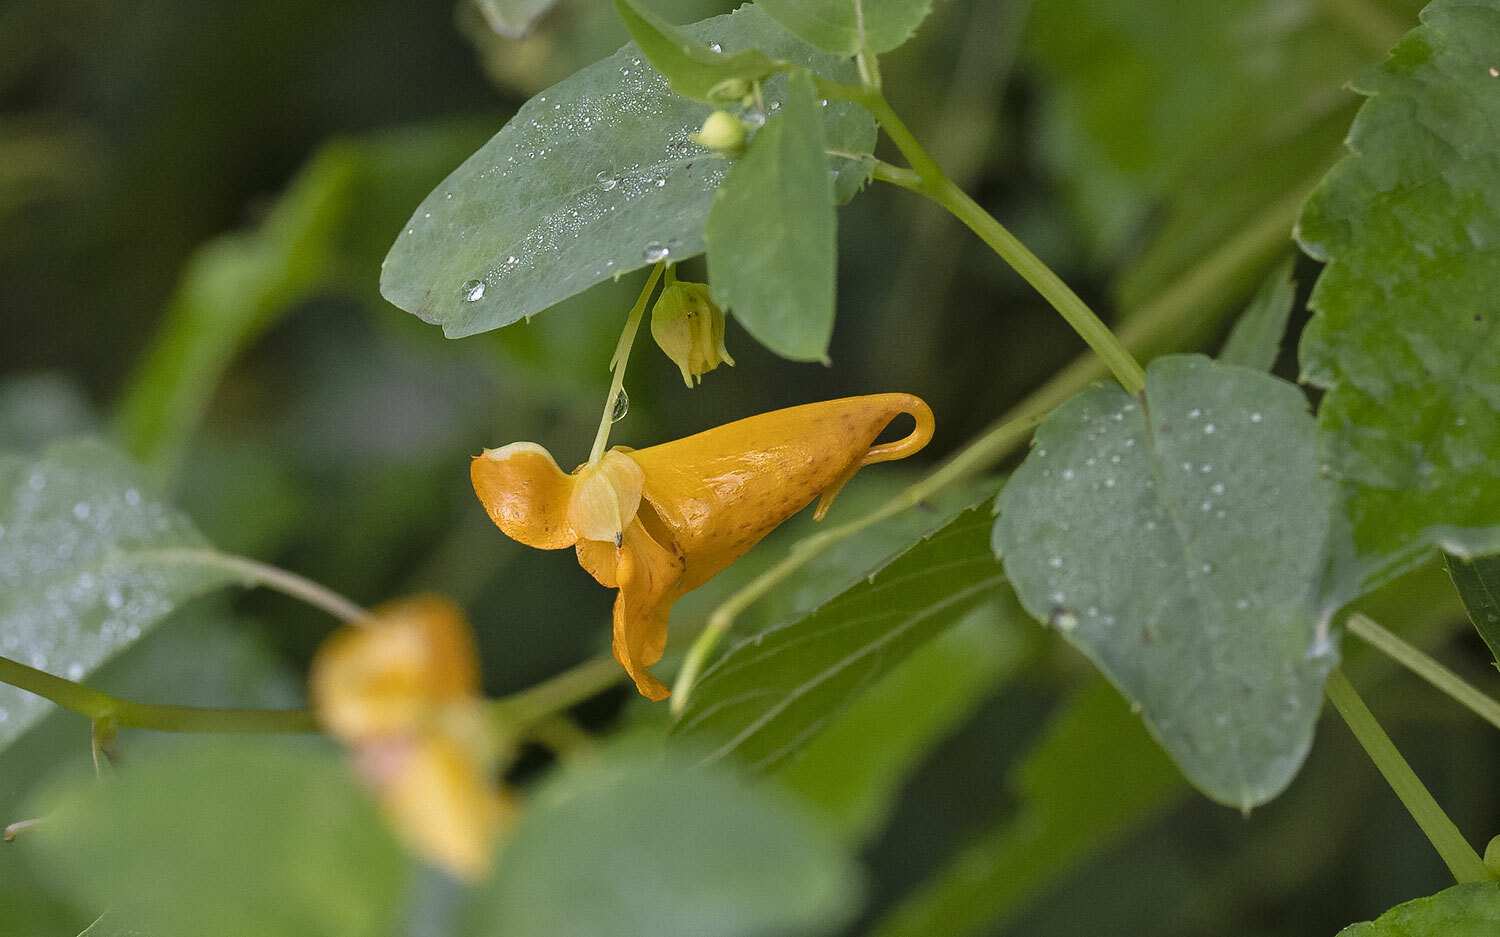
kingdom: Plantae
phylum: Tracheophyta
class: Magnoliopsida
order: Ericales
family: Balsaminaceae
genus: Impatiens
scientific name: Impatiens capensis
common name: Orange balsam
